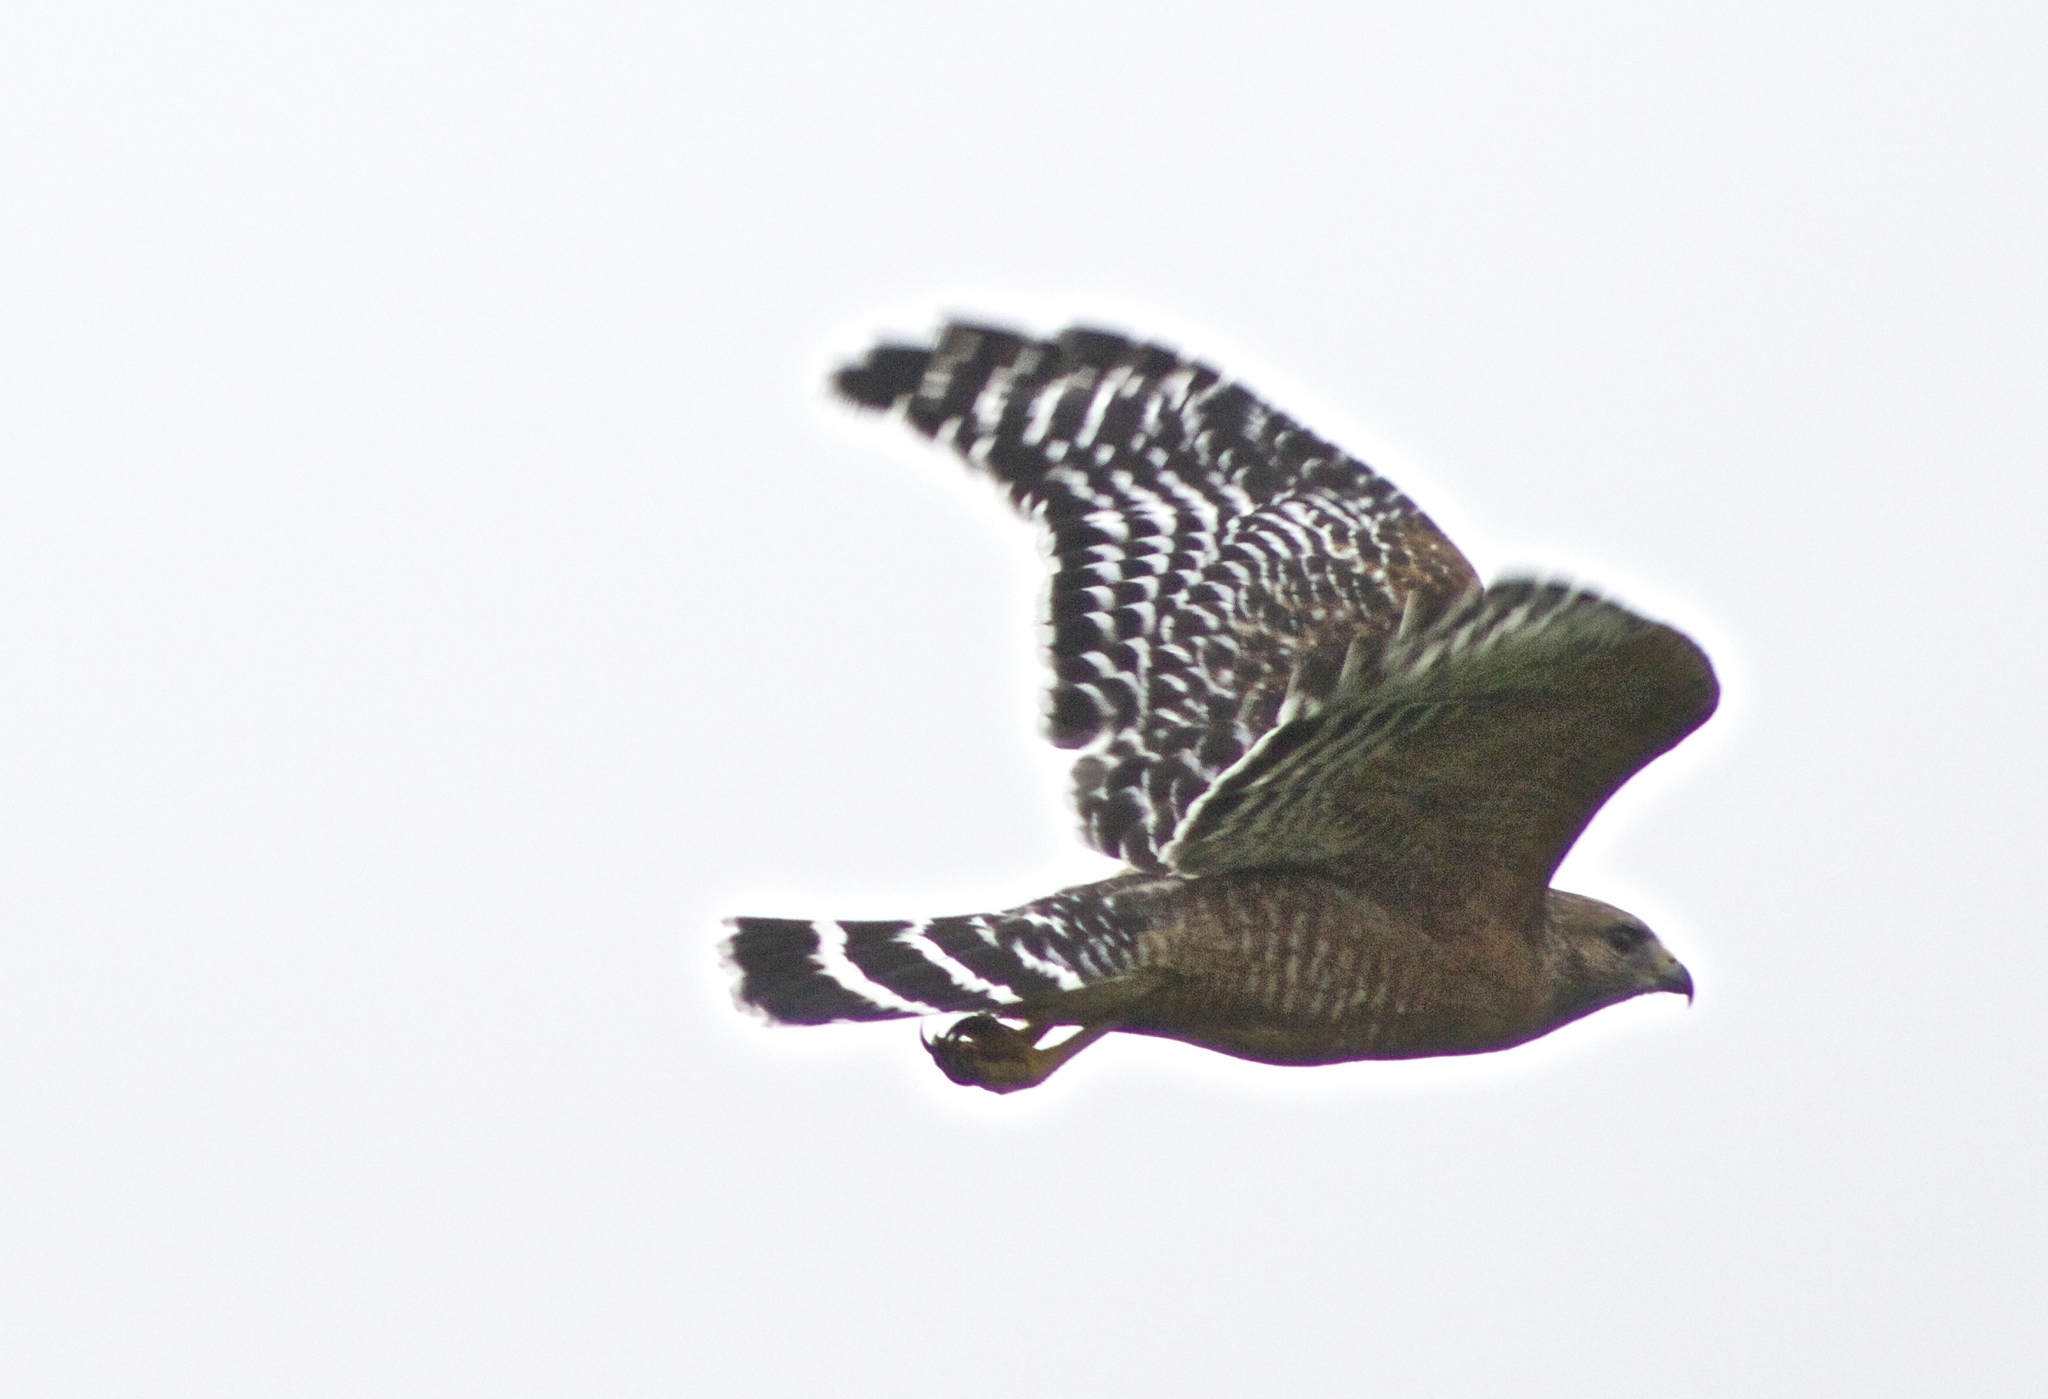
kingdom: Animalia
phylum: Chordata
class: Aves
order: Accipitriformes
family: Accipitridae
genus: Buteo
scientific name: Buteo lineatus
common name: Red-shouldered hawk
